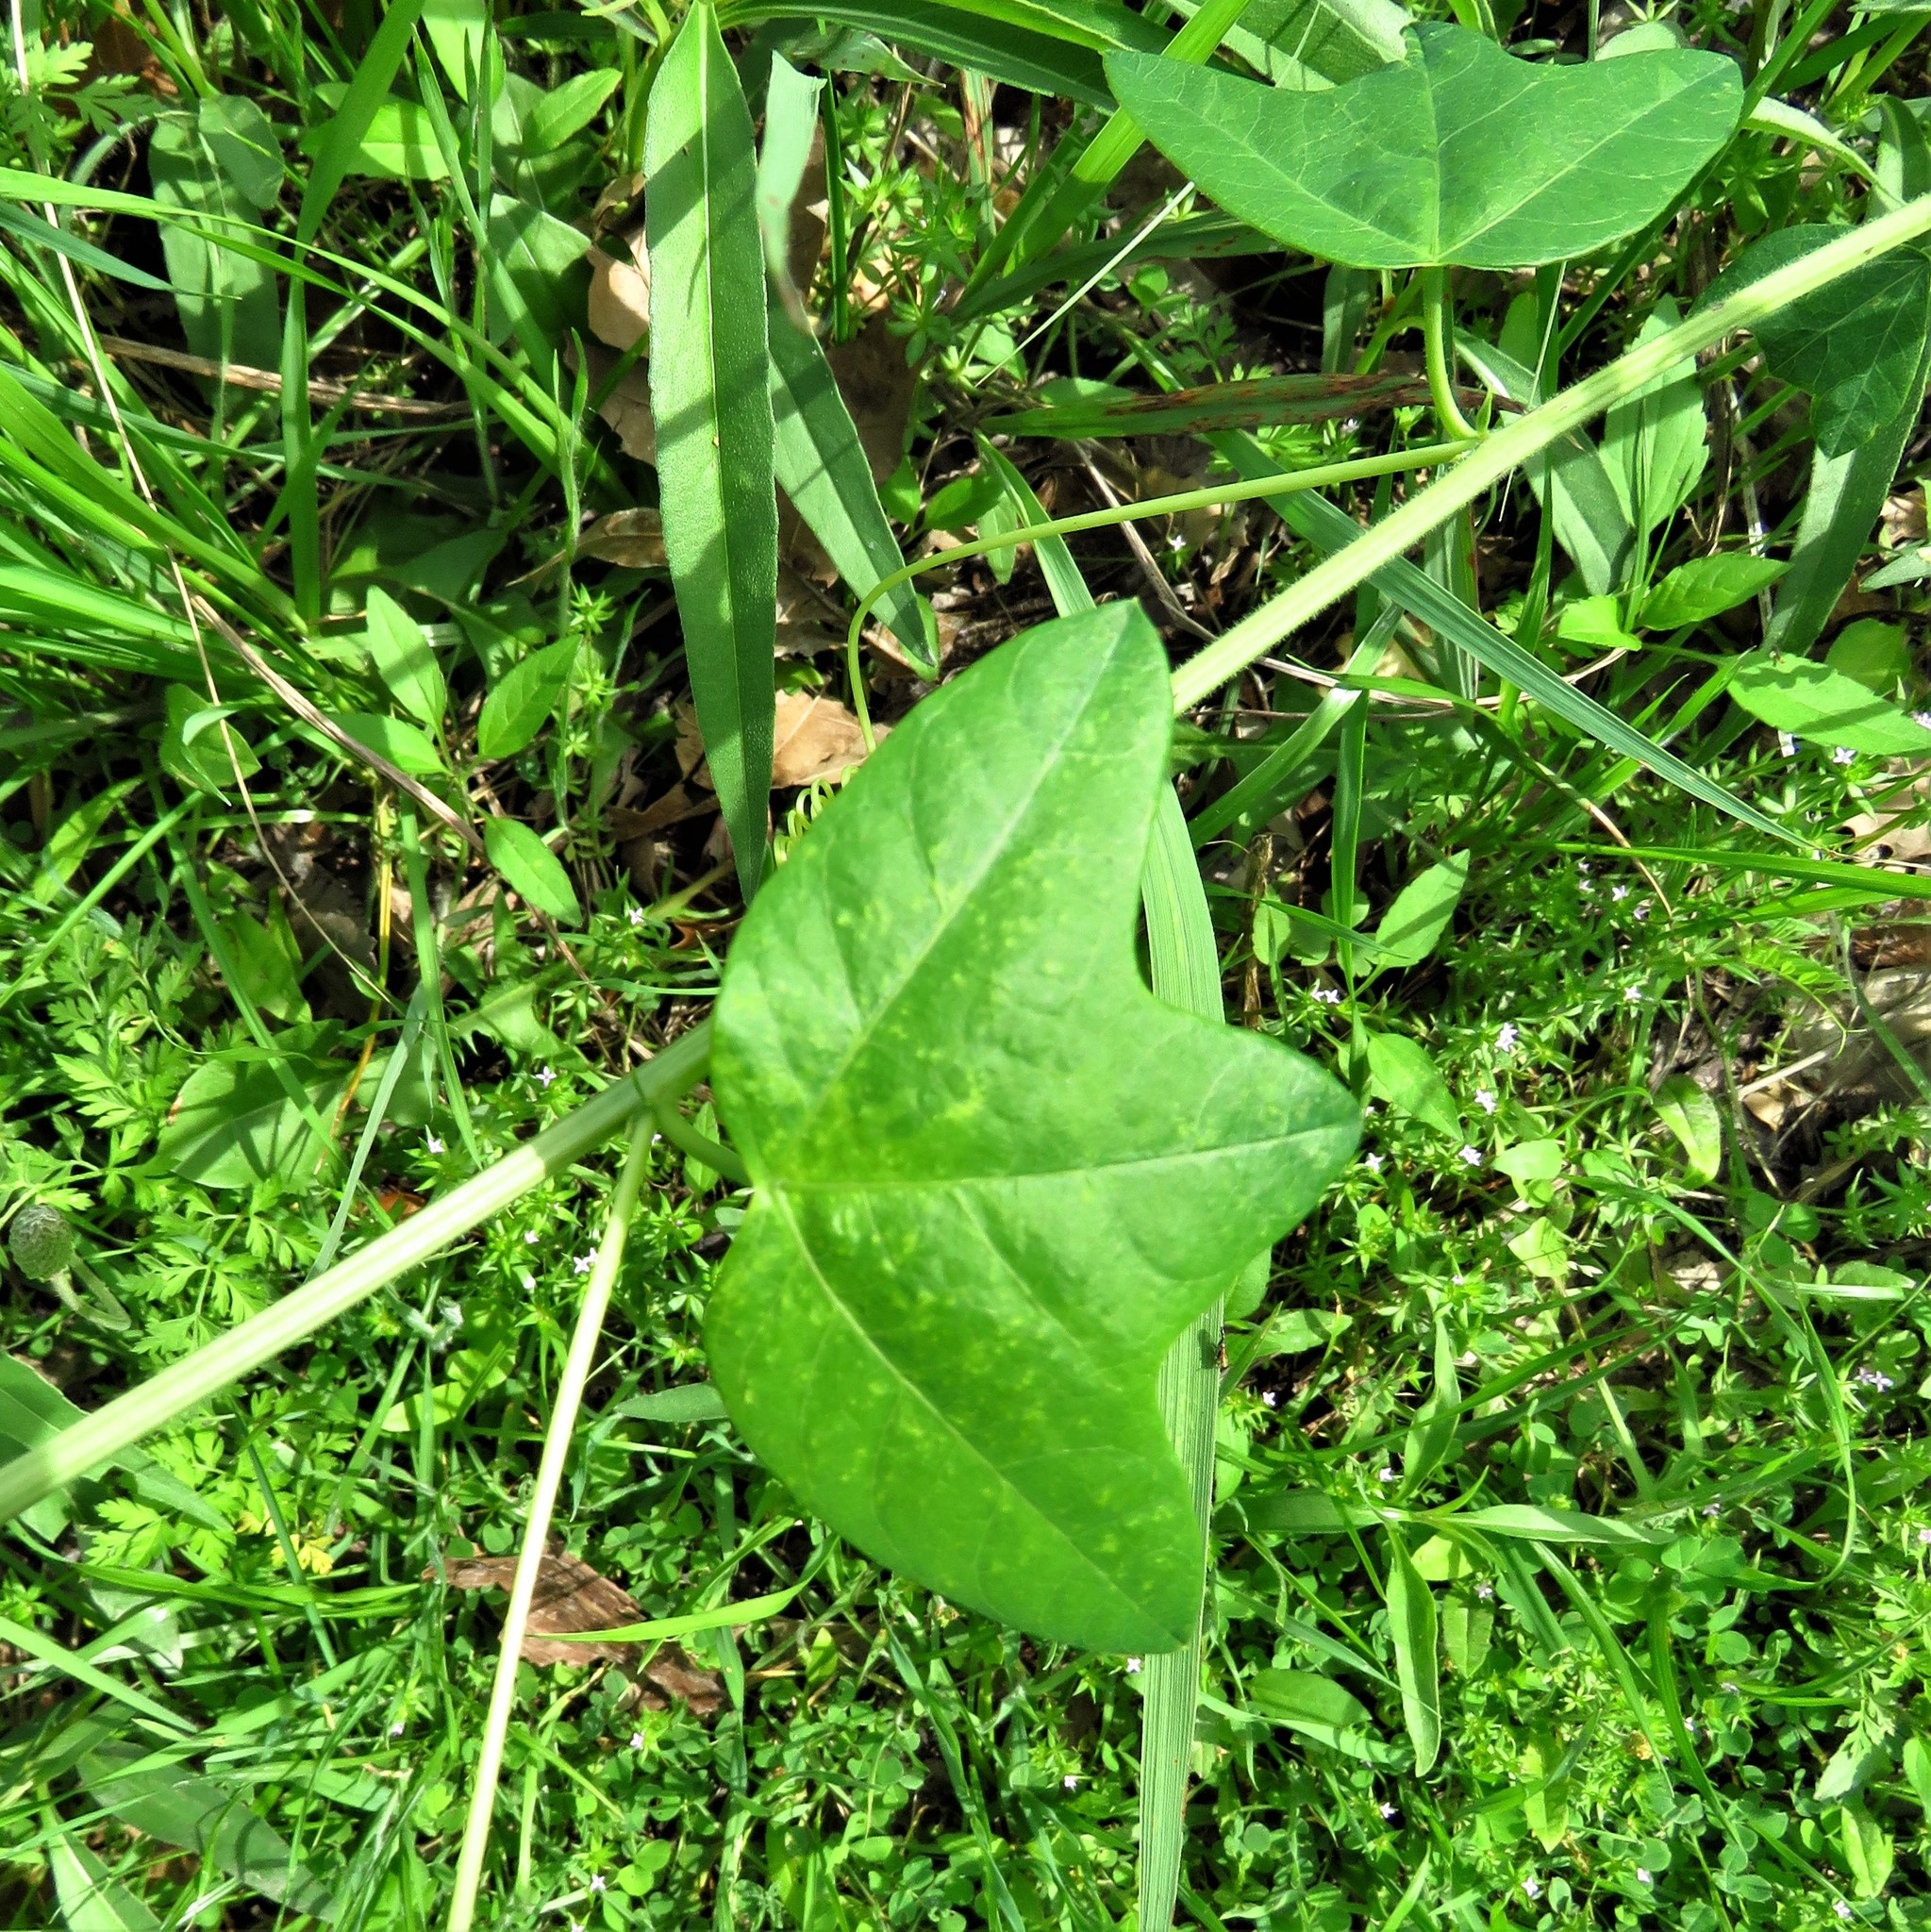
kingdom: Plantae
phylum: Tracheophyta
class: Magnoliopsida
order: Malpighiales
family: Passifloraceae
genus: Passiflora
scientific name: Passiflora lutea
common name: Yellow passionflower
